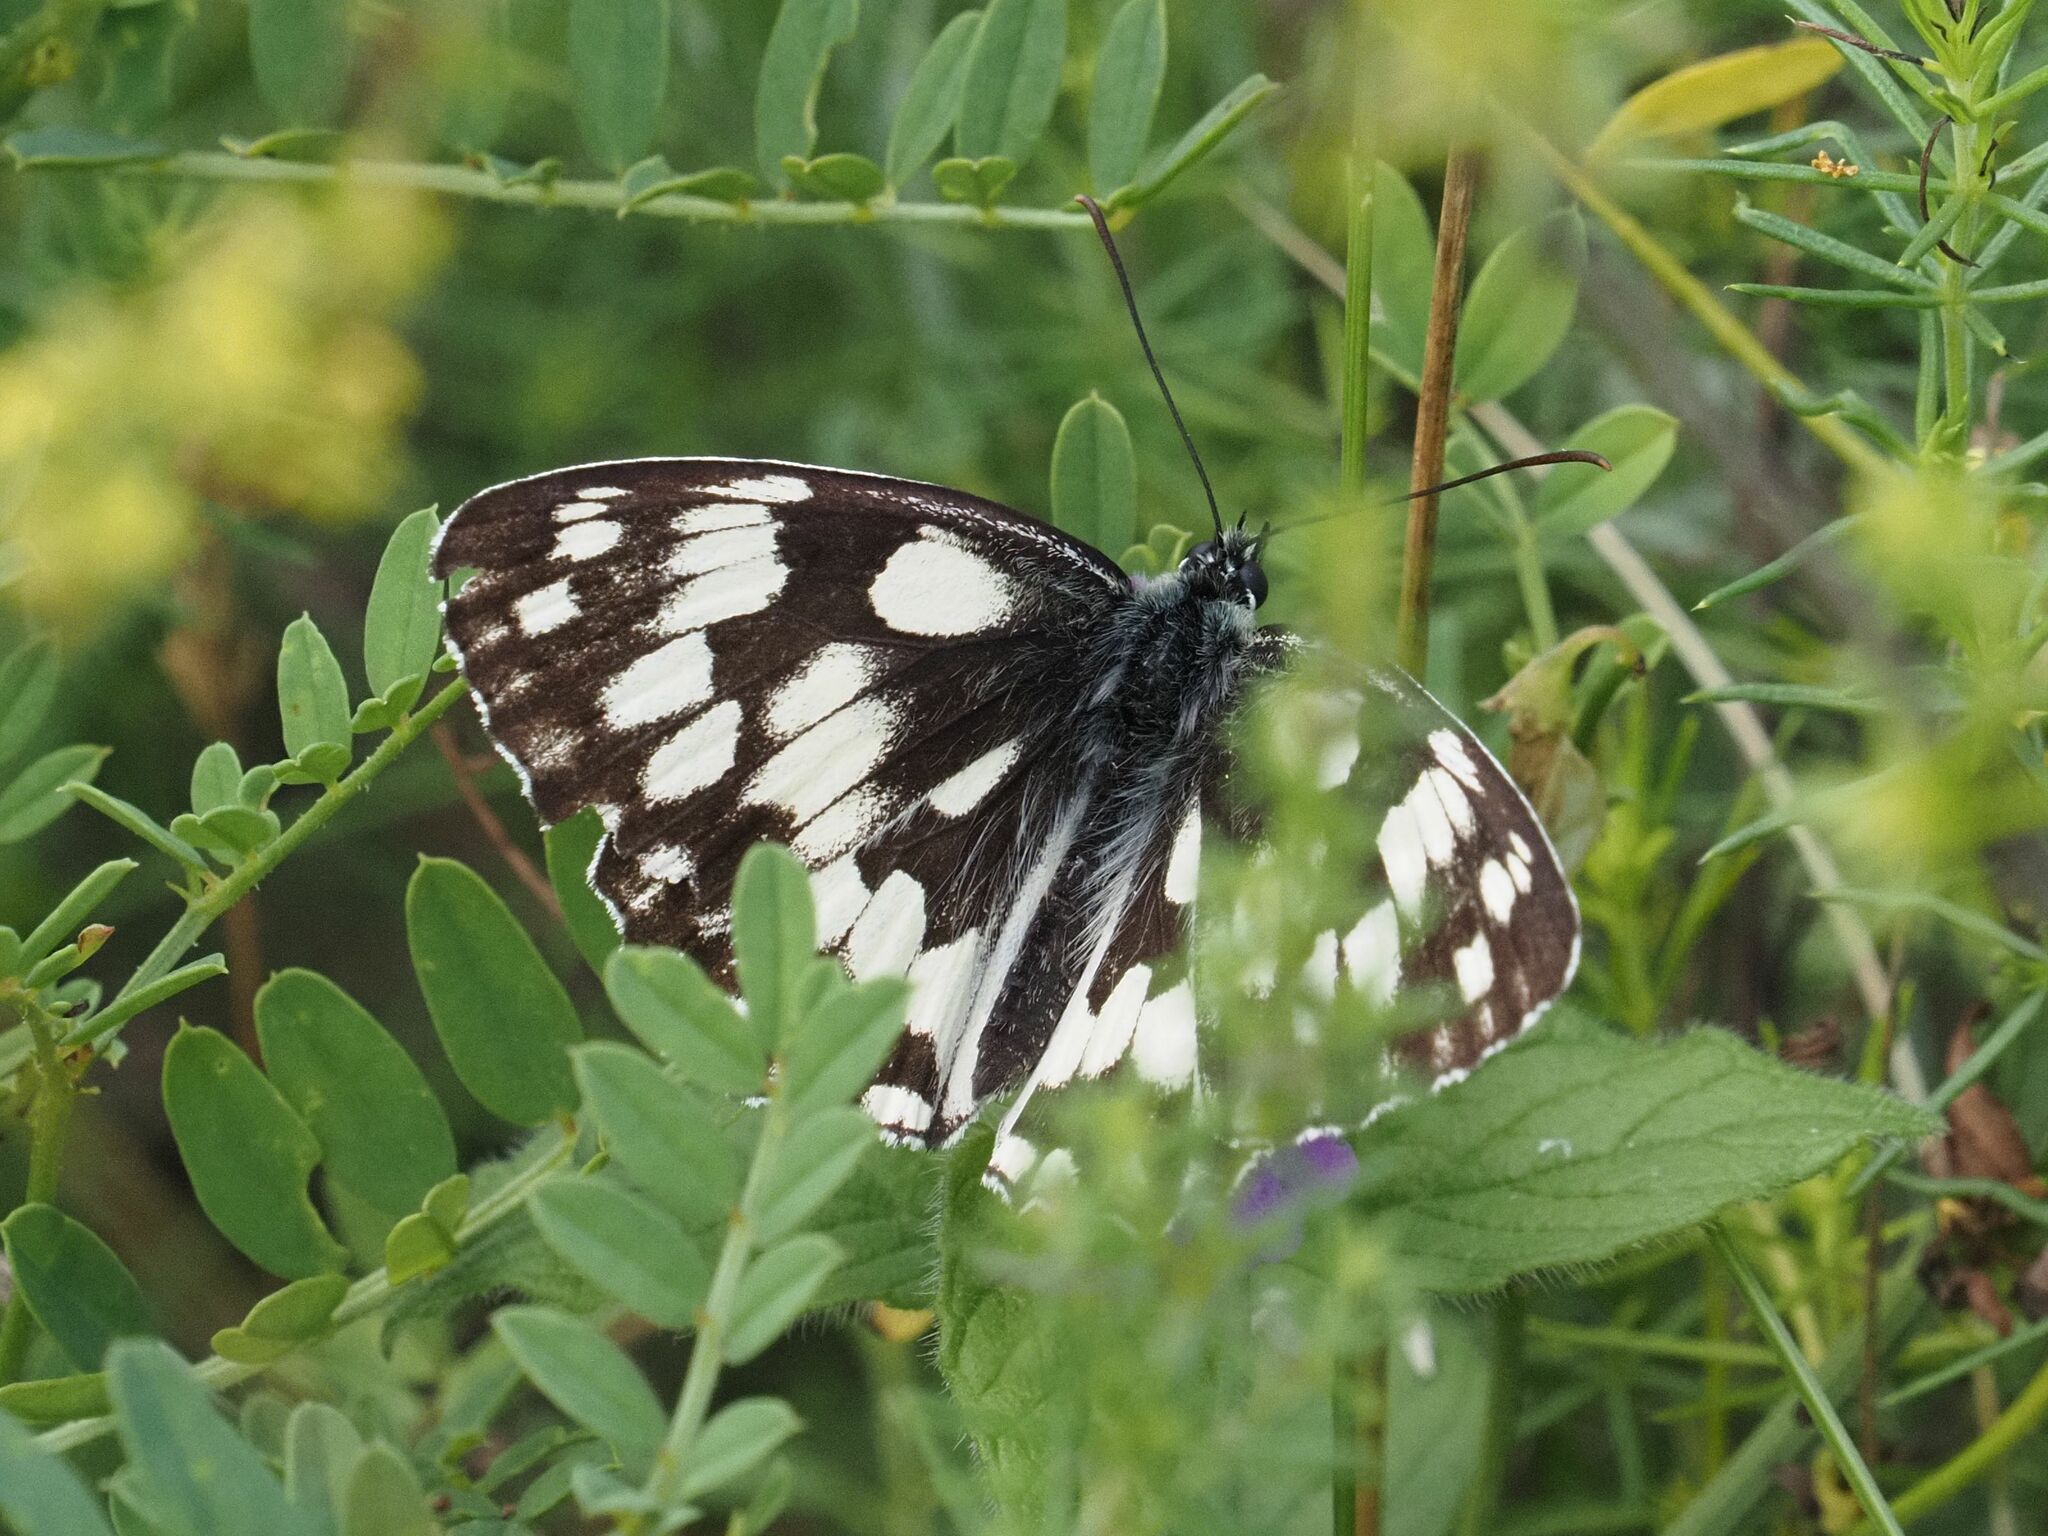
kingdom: Animalia
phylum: Arthropoda
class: Insecta
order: Lepidoptera
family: Nymphalidae
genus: Melanargia
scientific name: Melanargia galathea
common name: Marbled white
